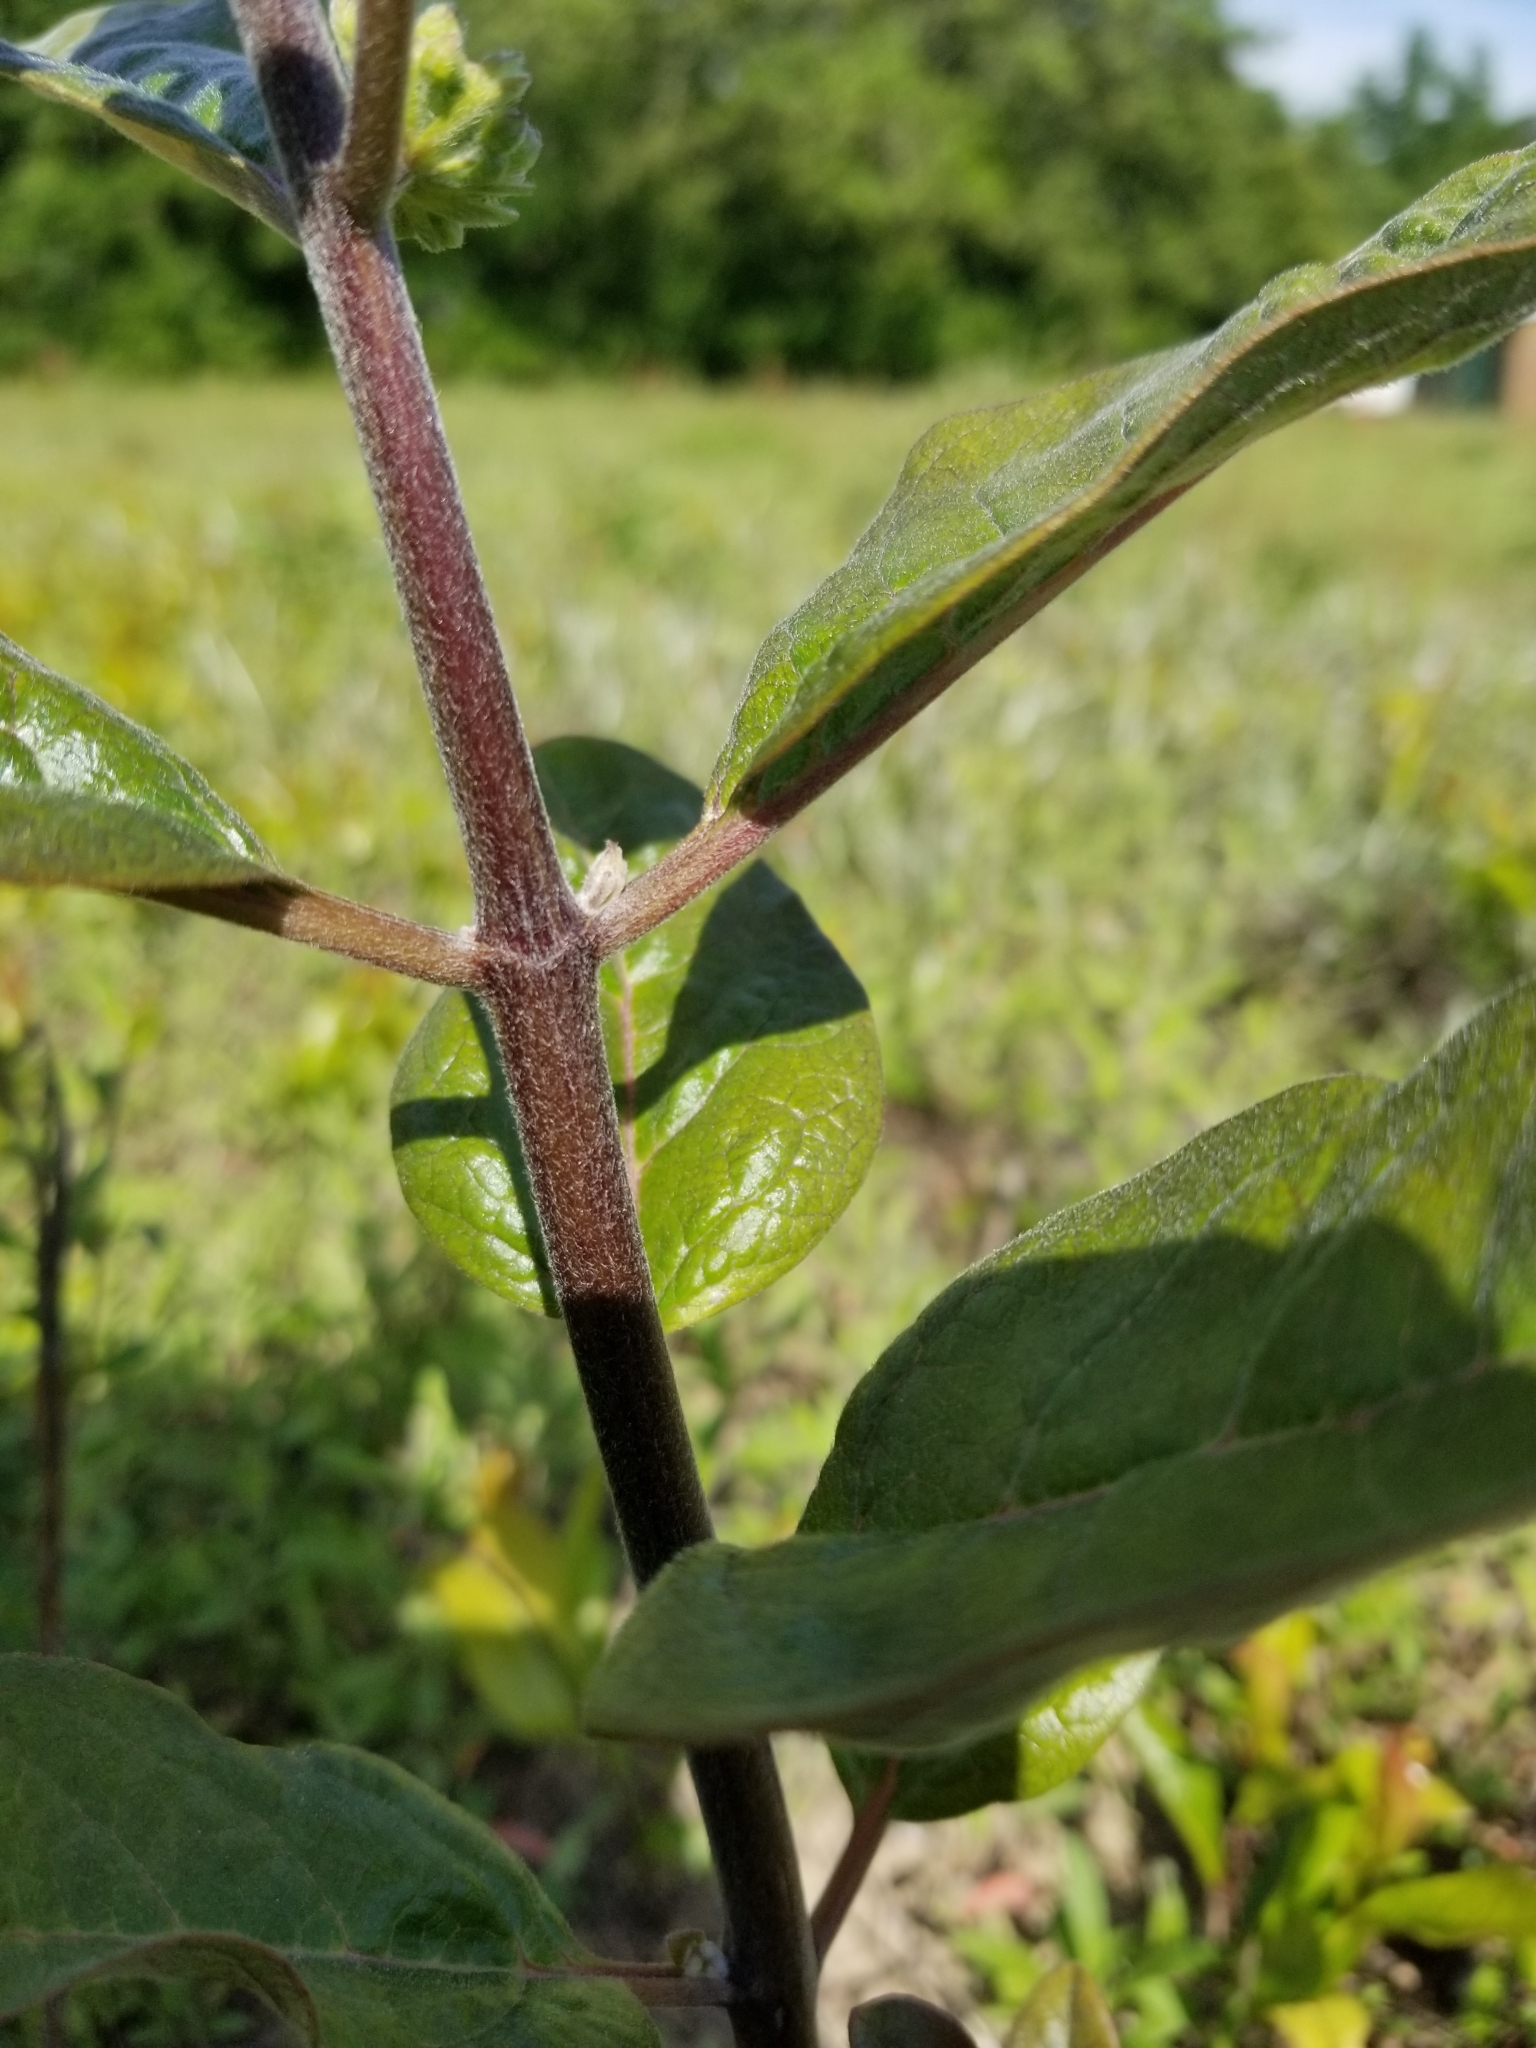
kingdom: Plantae
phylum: Tracheophyta
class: Magnoliopsida
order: Gentianales
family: Apocynaceae
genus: Asclepias
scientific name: Asclepias tomentosa
